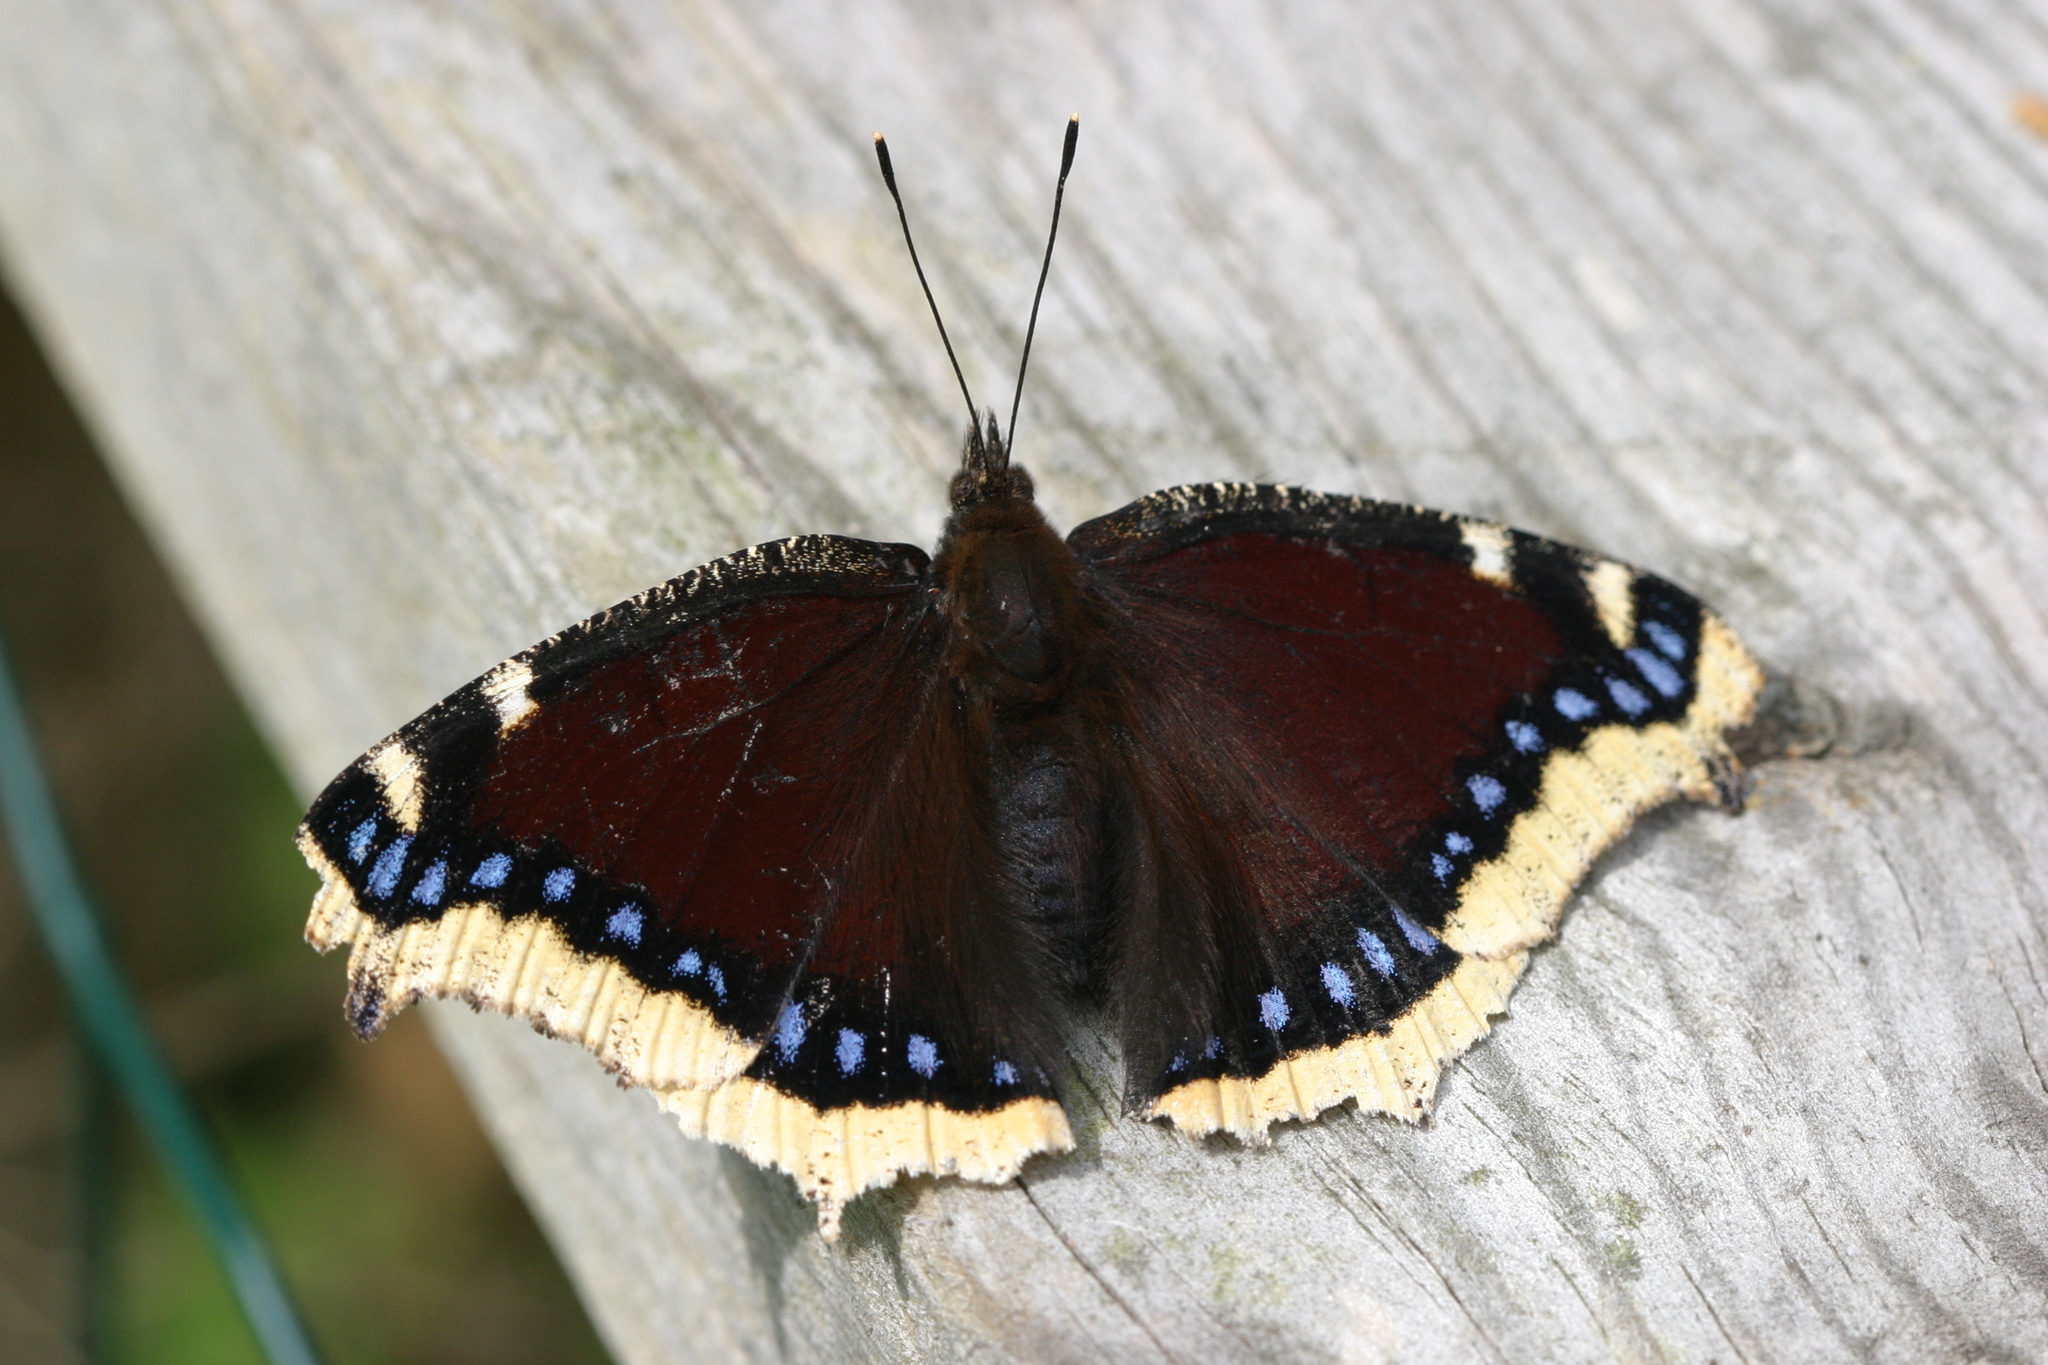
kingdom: Animalia
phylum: Arthropoda
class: Insecta
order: Lepidoptera
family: Nymphalidae
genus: Nymphalis
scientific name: Nymphalis antiopa
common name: Camberwell beauty
